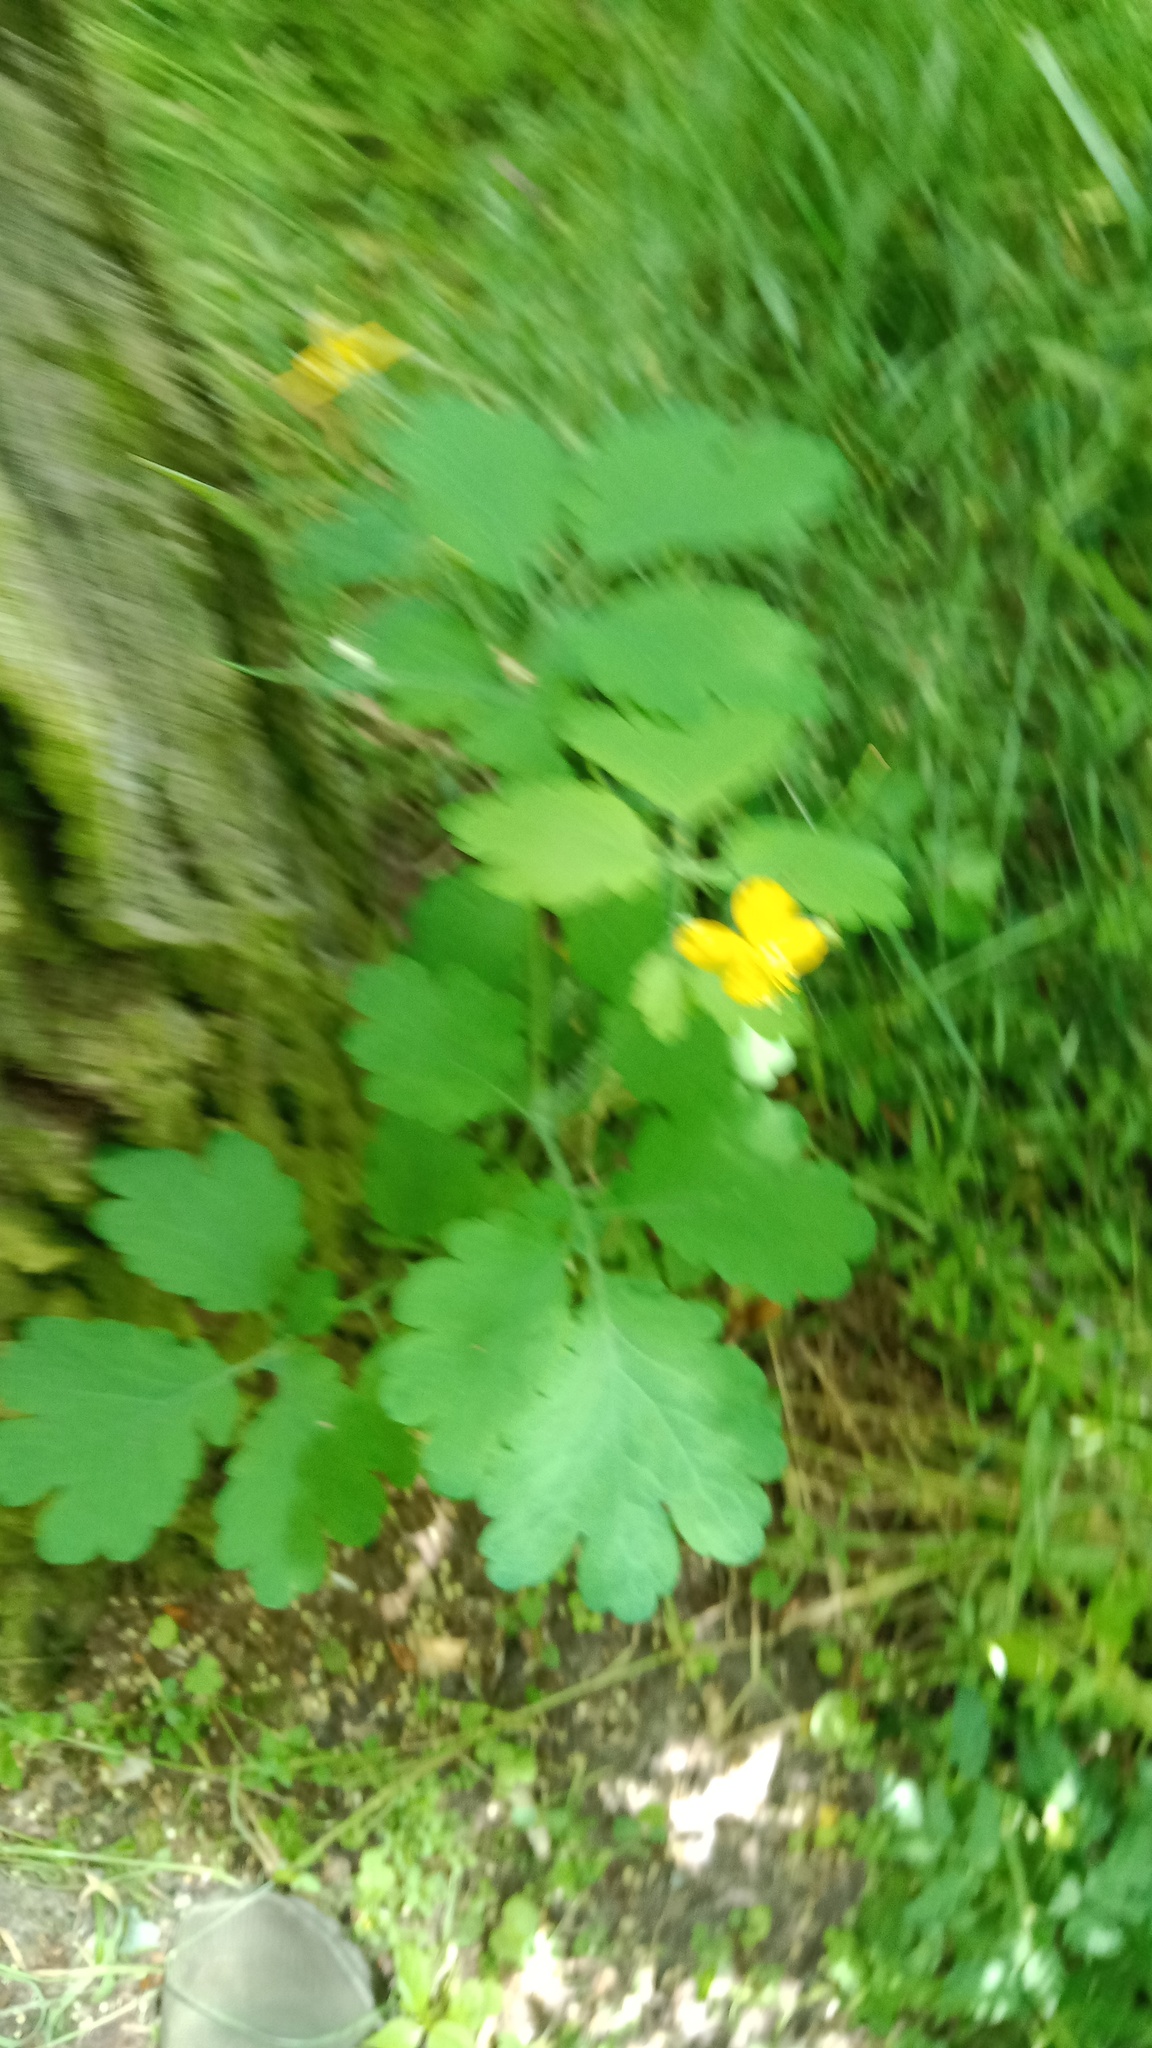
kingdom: Plantae
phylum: Tracheophyta
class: Magnoliopsida
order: Ranunculales
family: Papaveraceae
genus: Chelidonium
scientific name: Chelidonium majus
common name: Greater celandine
